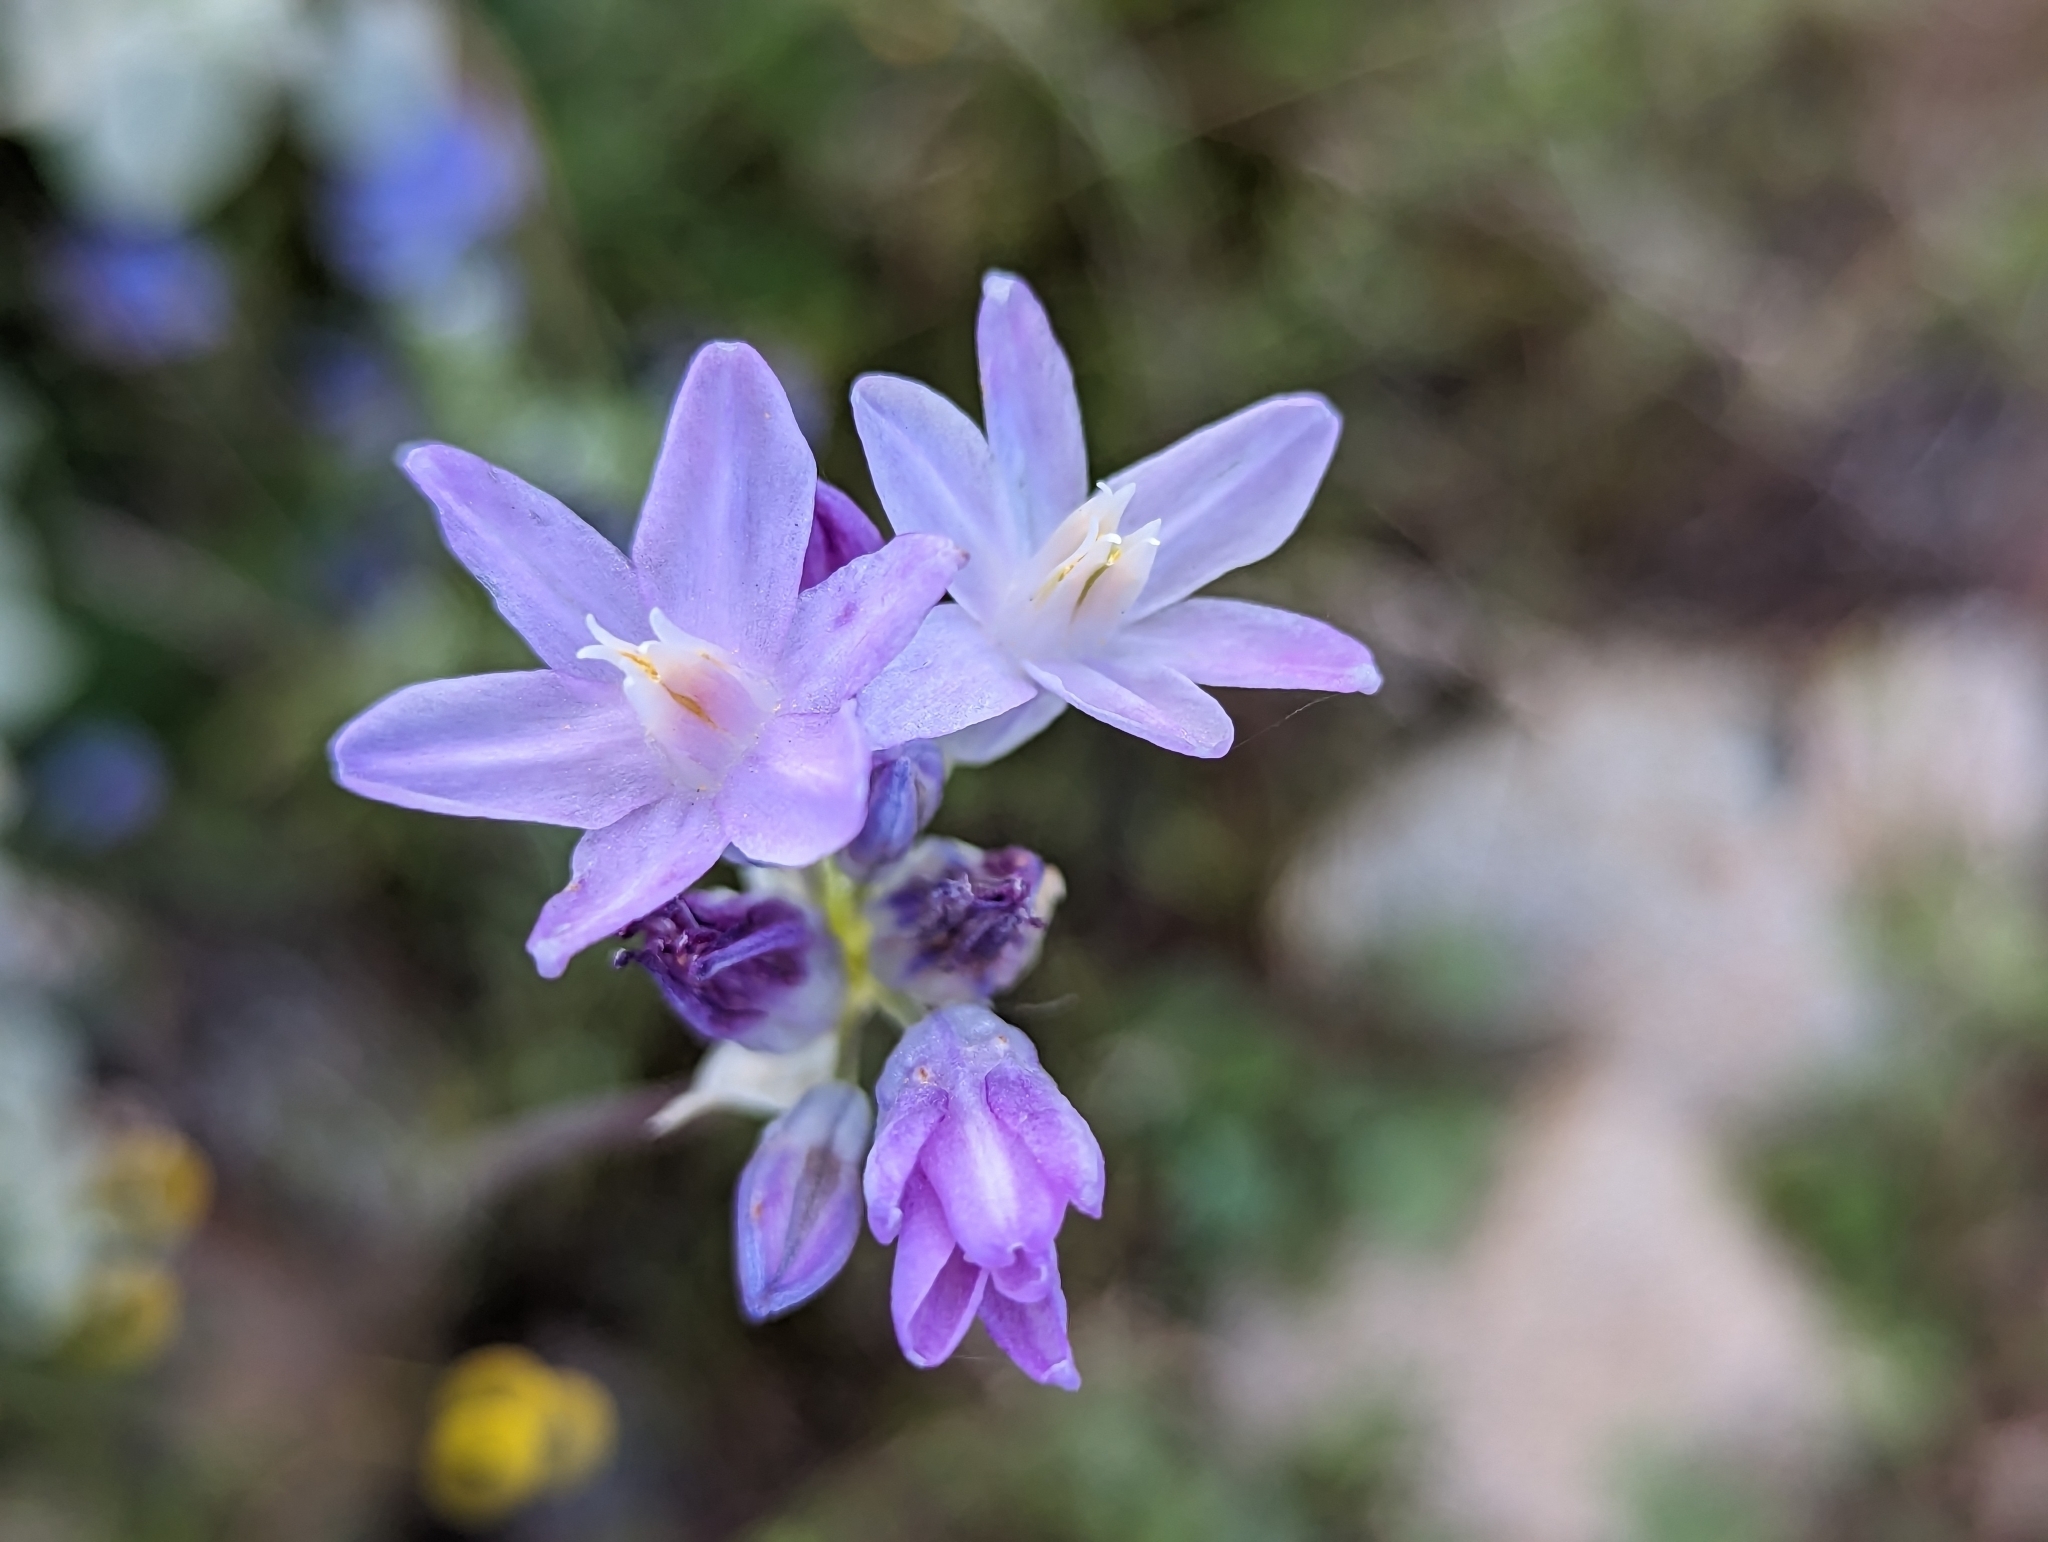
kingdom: Plantae
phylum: Tracheophyta
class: Liliopsida
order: Asparagales
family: Asparagaceae
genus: Dipterostemon
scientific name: Dipterostemon capitatus
